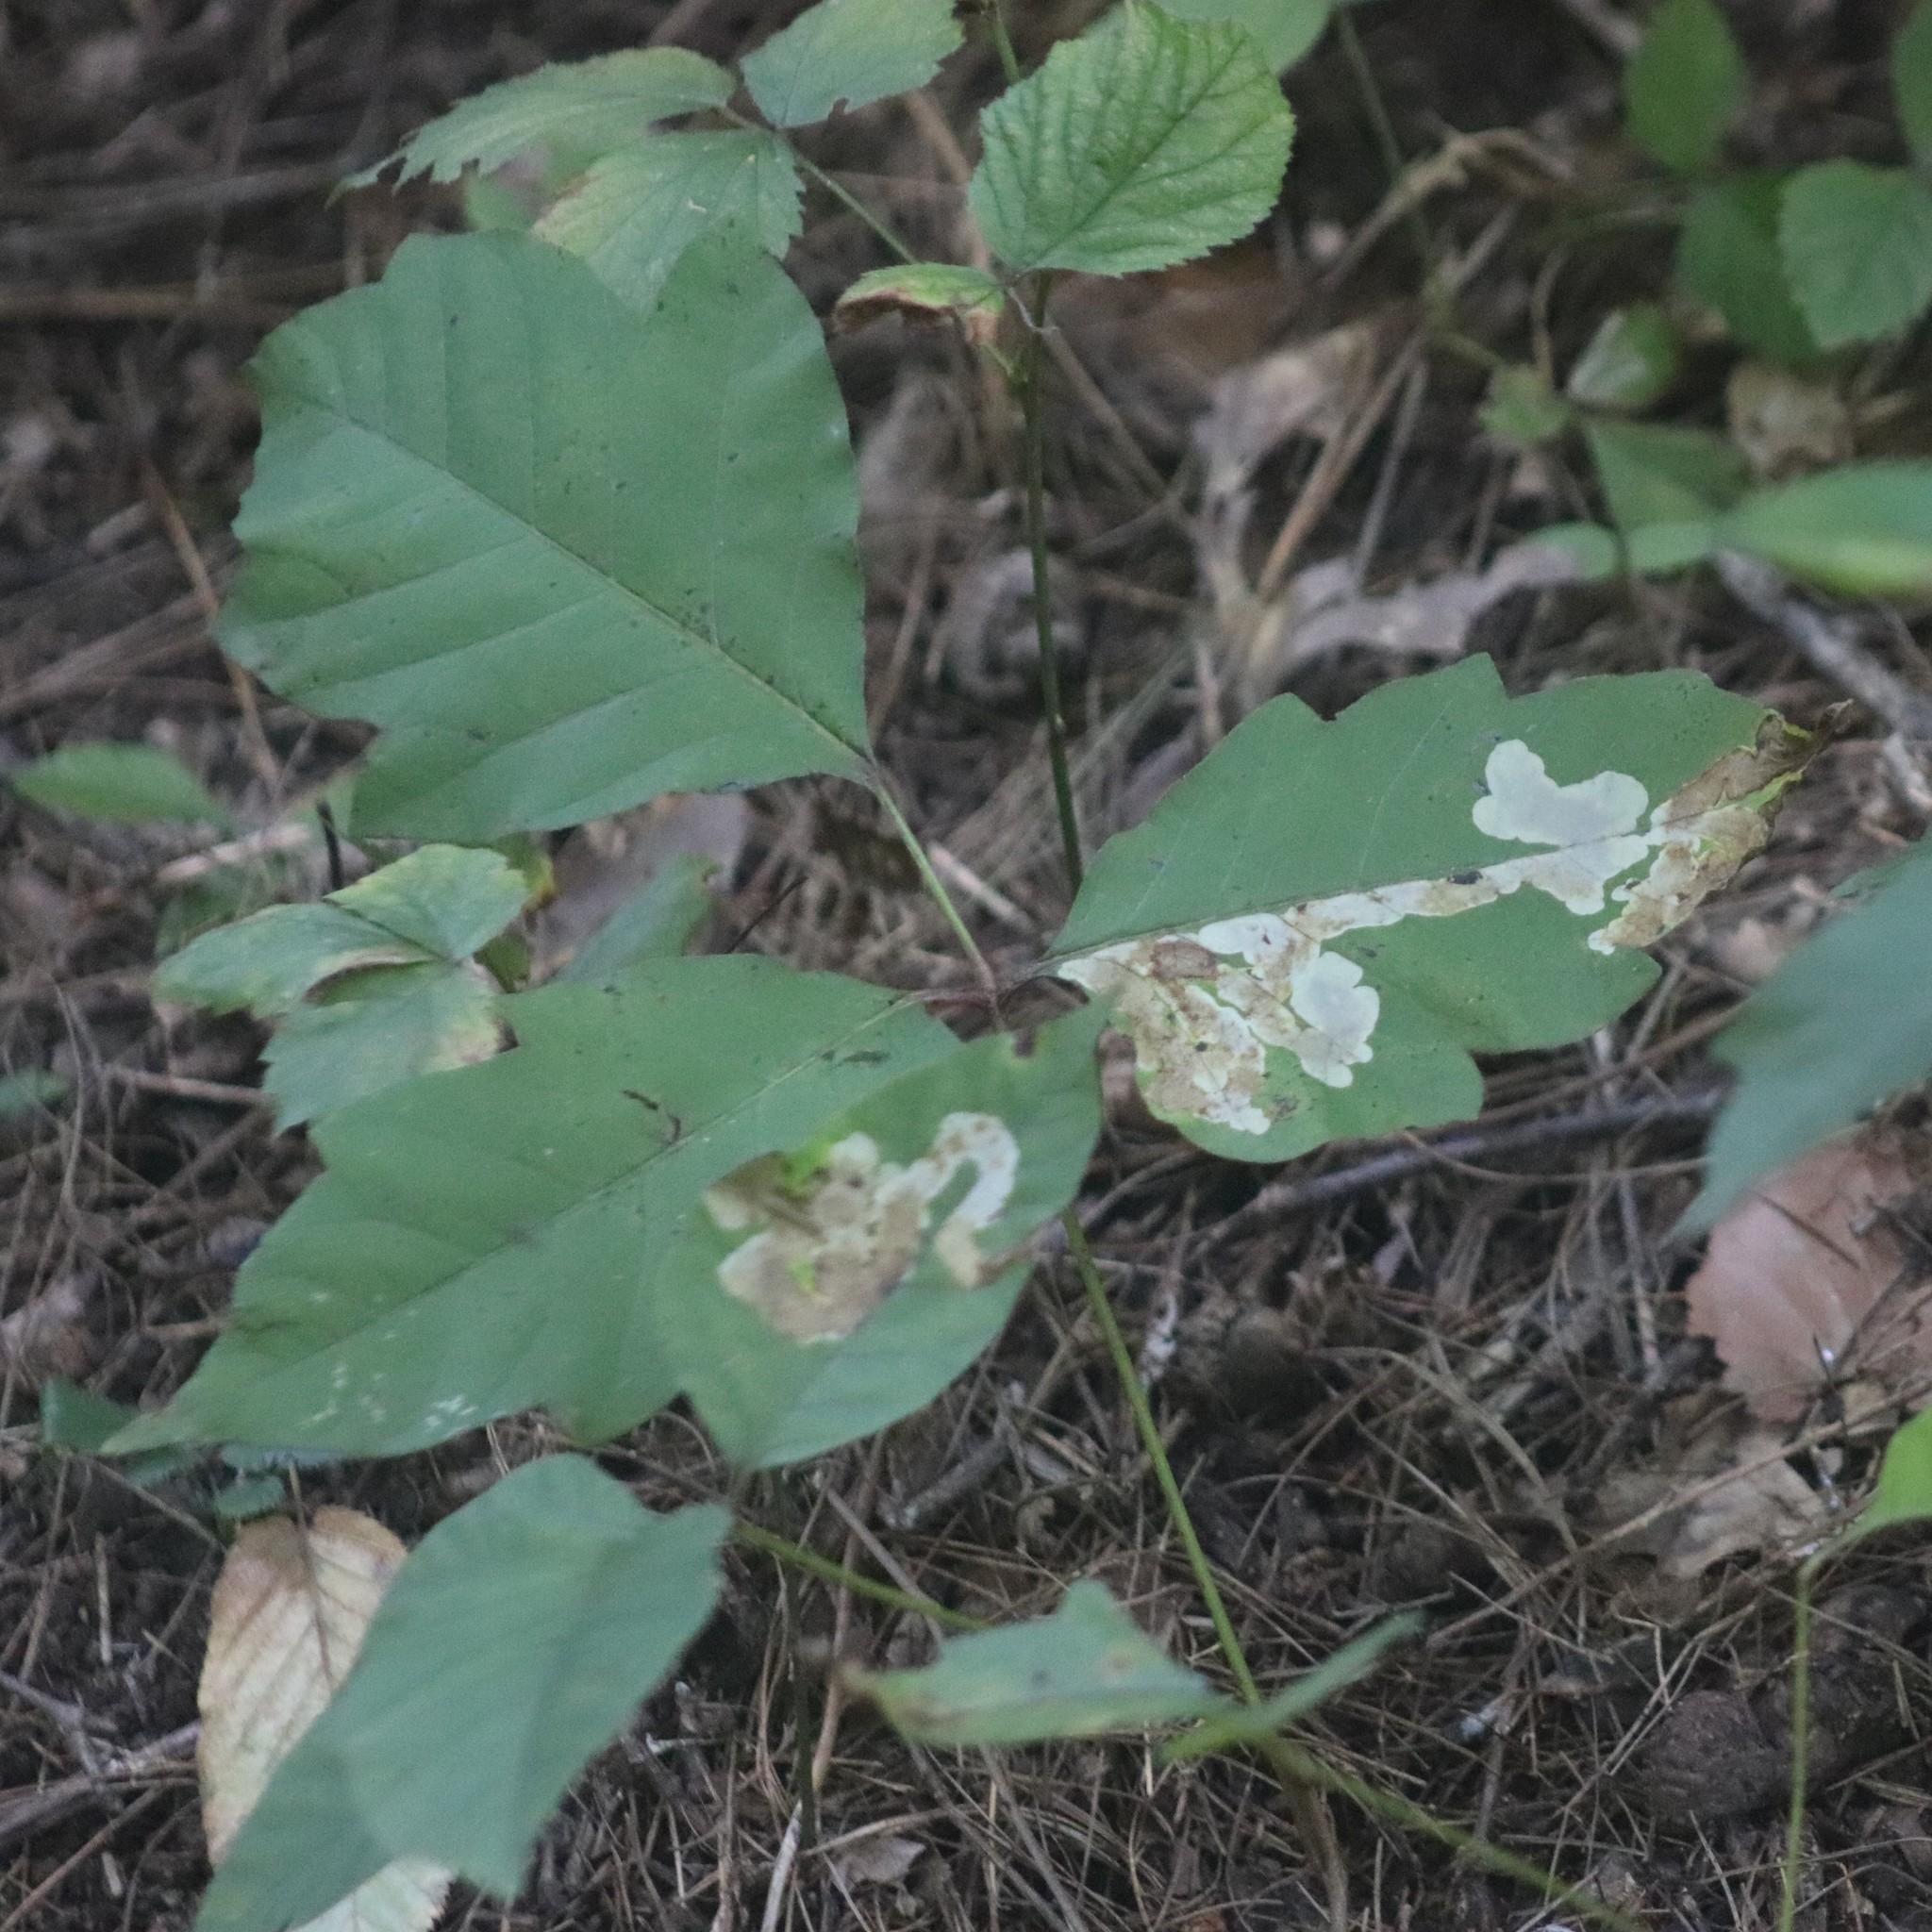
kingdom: Animalia
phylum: Arthropoda
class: Insecta
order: Lepidoptera
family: Gracillariidae
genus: Cameraria
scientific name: Cameraria guttifinitella
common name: Poison ivy leaf-miner moth
